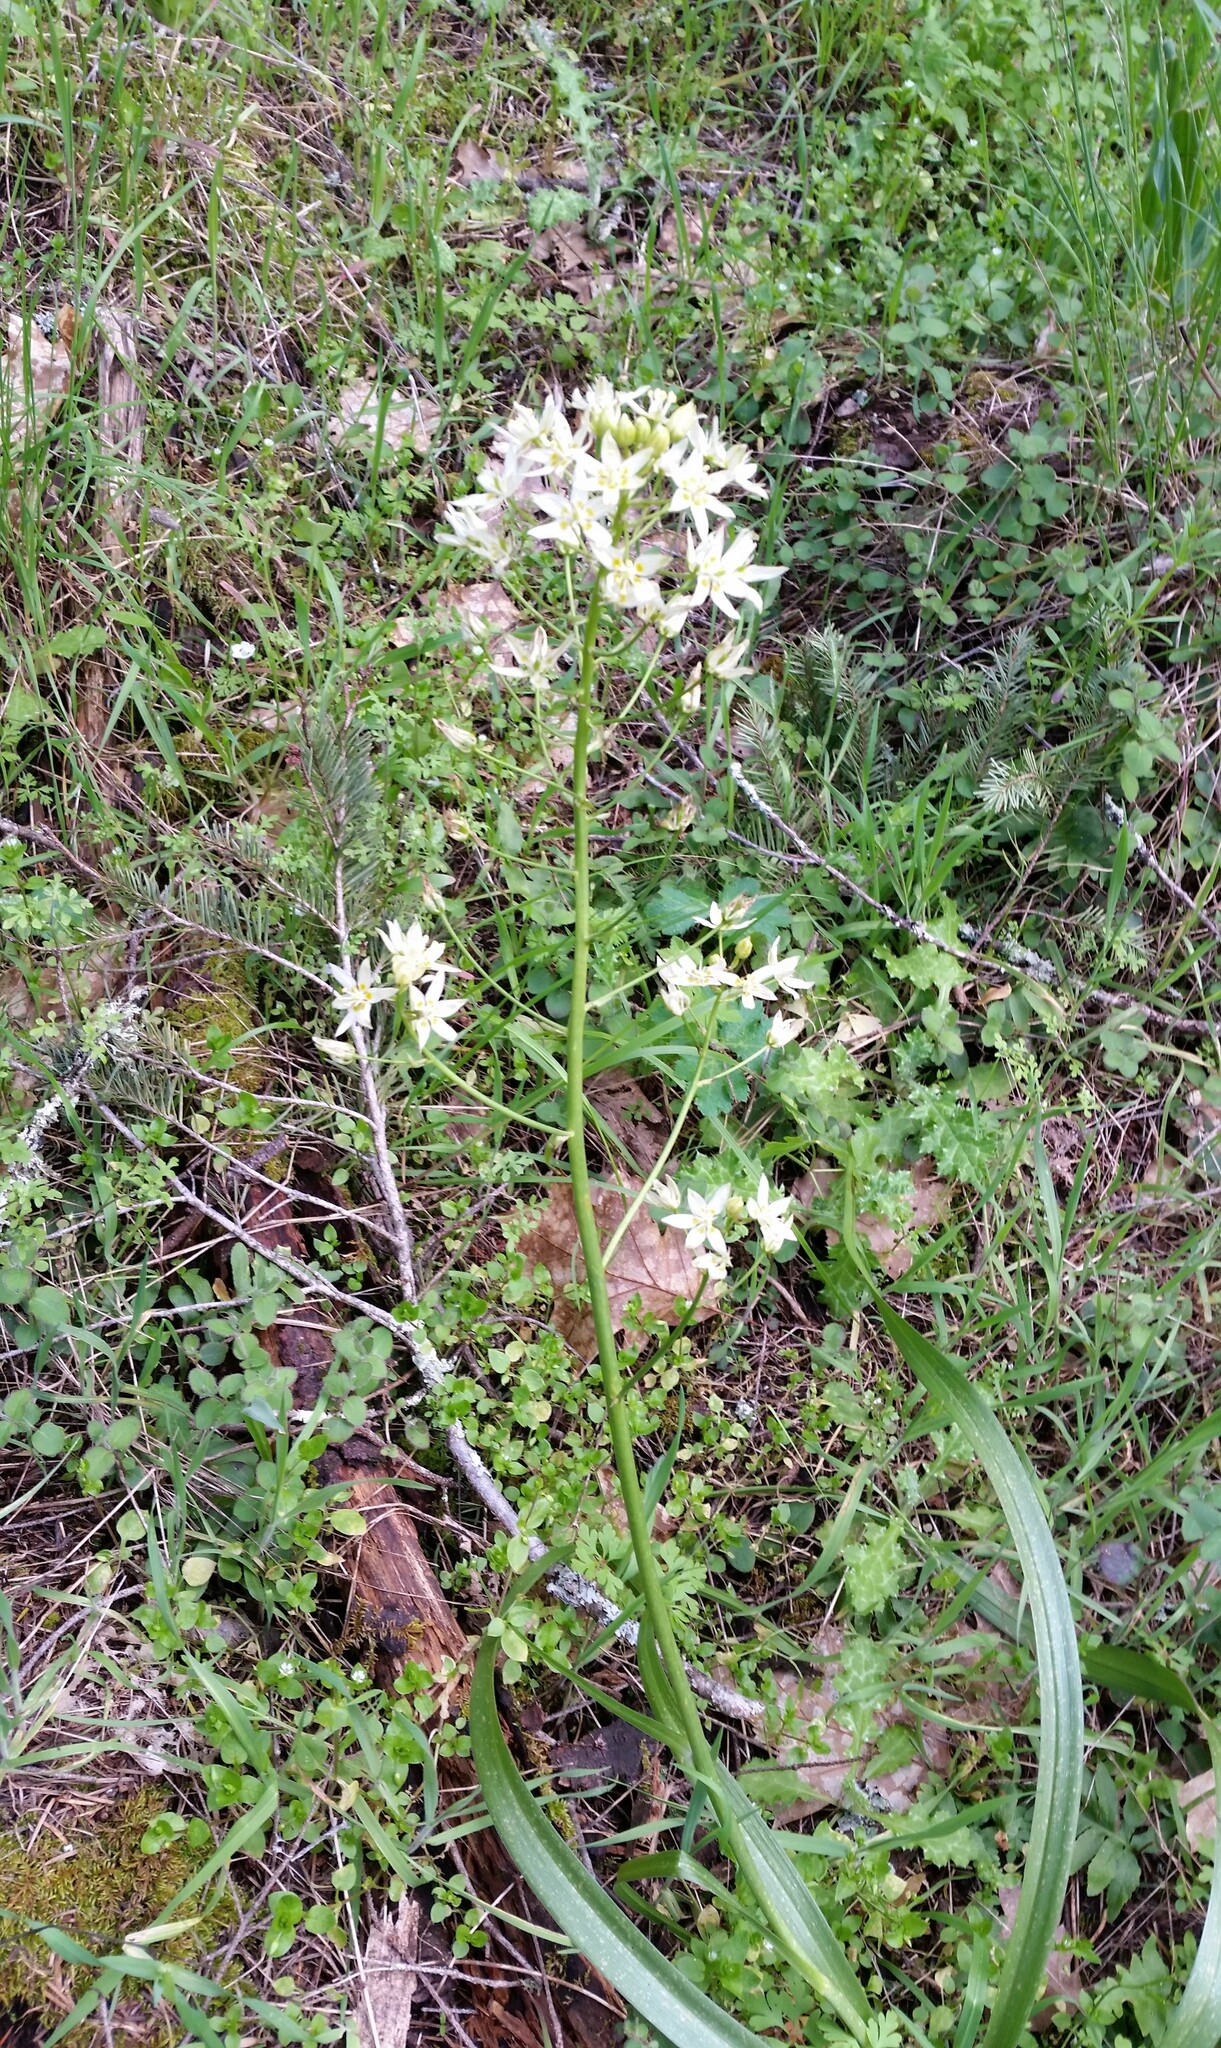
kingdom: Plantae
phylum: Tracheophyta
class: Liliopsida
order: Liliales
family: Melanthiaceae
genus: Toxicoscordion
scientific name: Toxicoscordion fremontii
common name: Fremont's death camas
